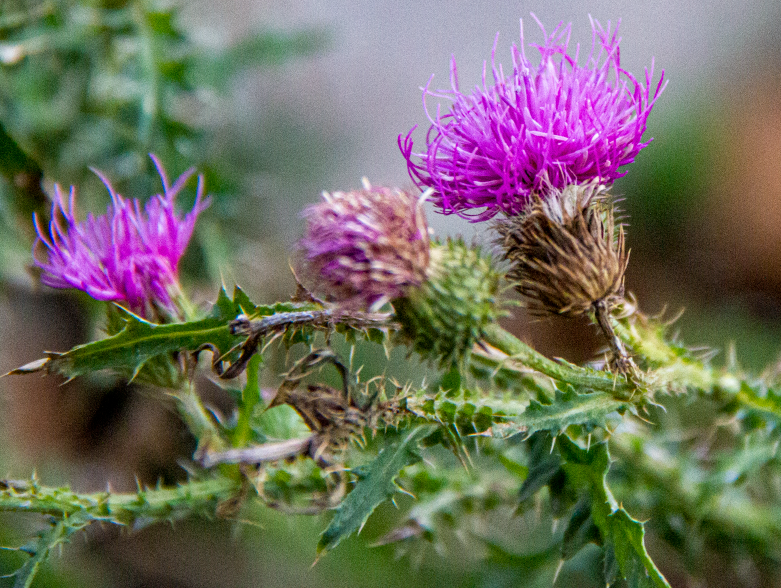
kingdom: Plantae
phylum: Tracheophyta
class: Magnoliopsida
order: Asterales
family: Asteraceae
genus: Carduus
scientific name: Carduus acanthoides
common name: Plumeless thistle
